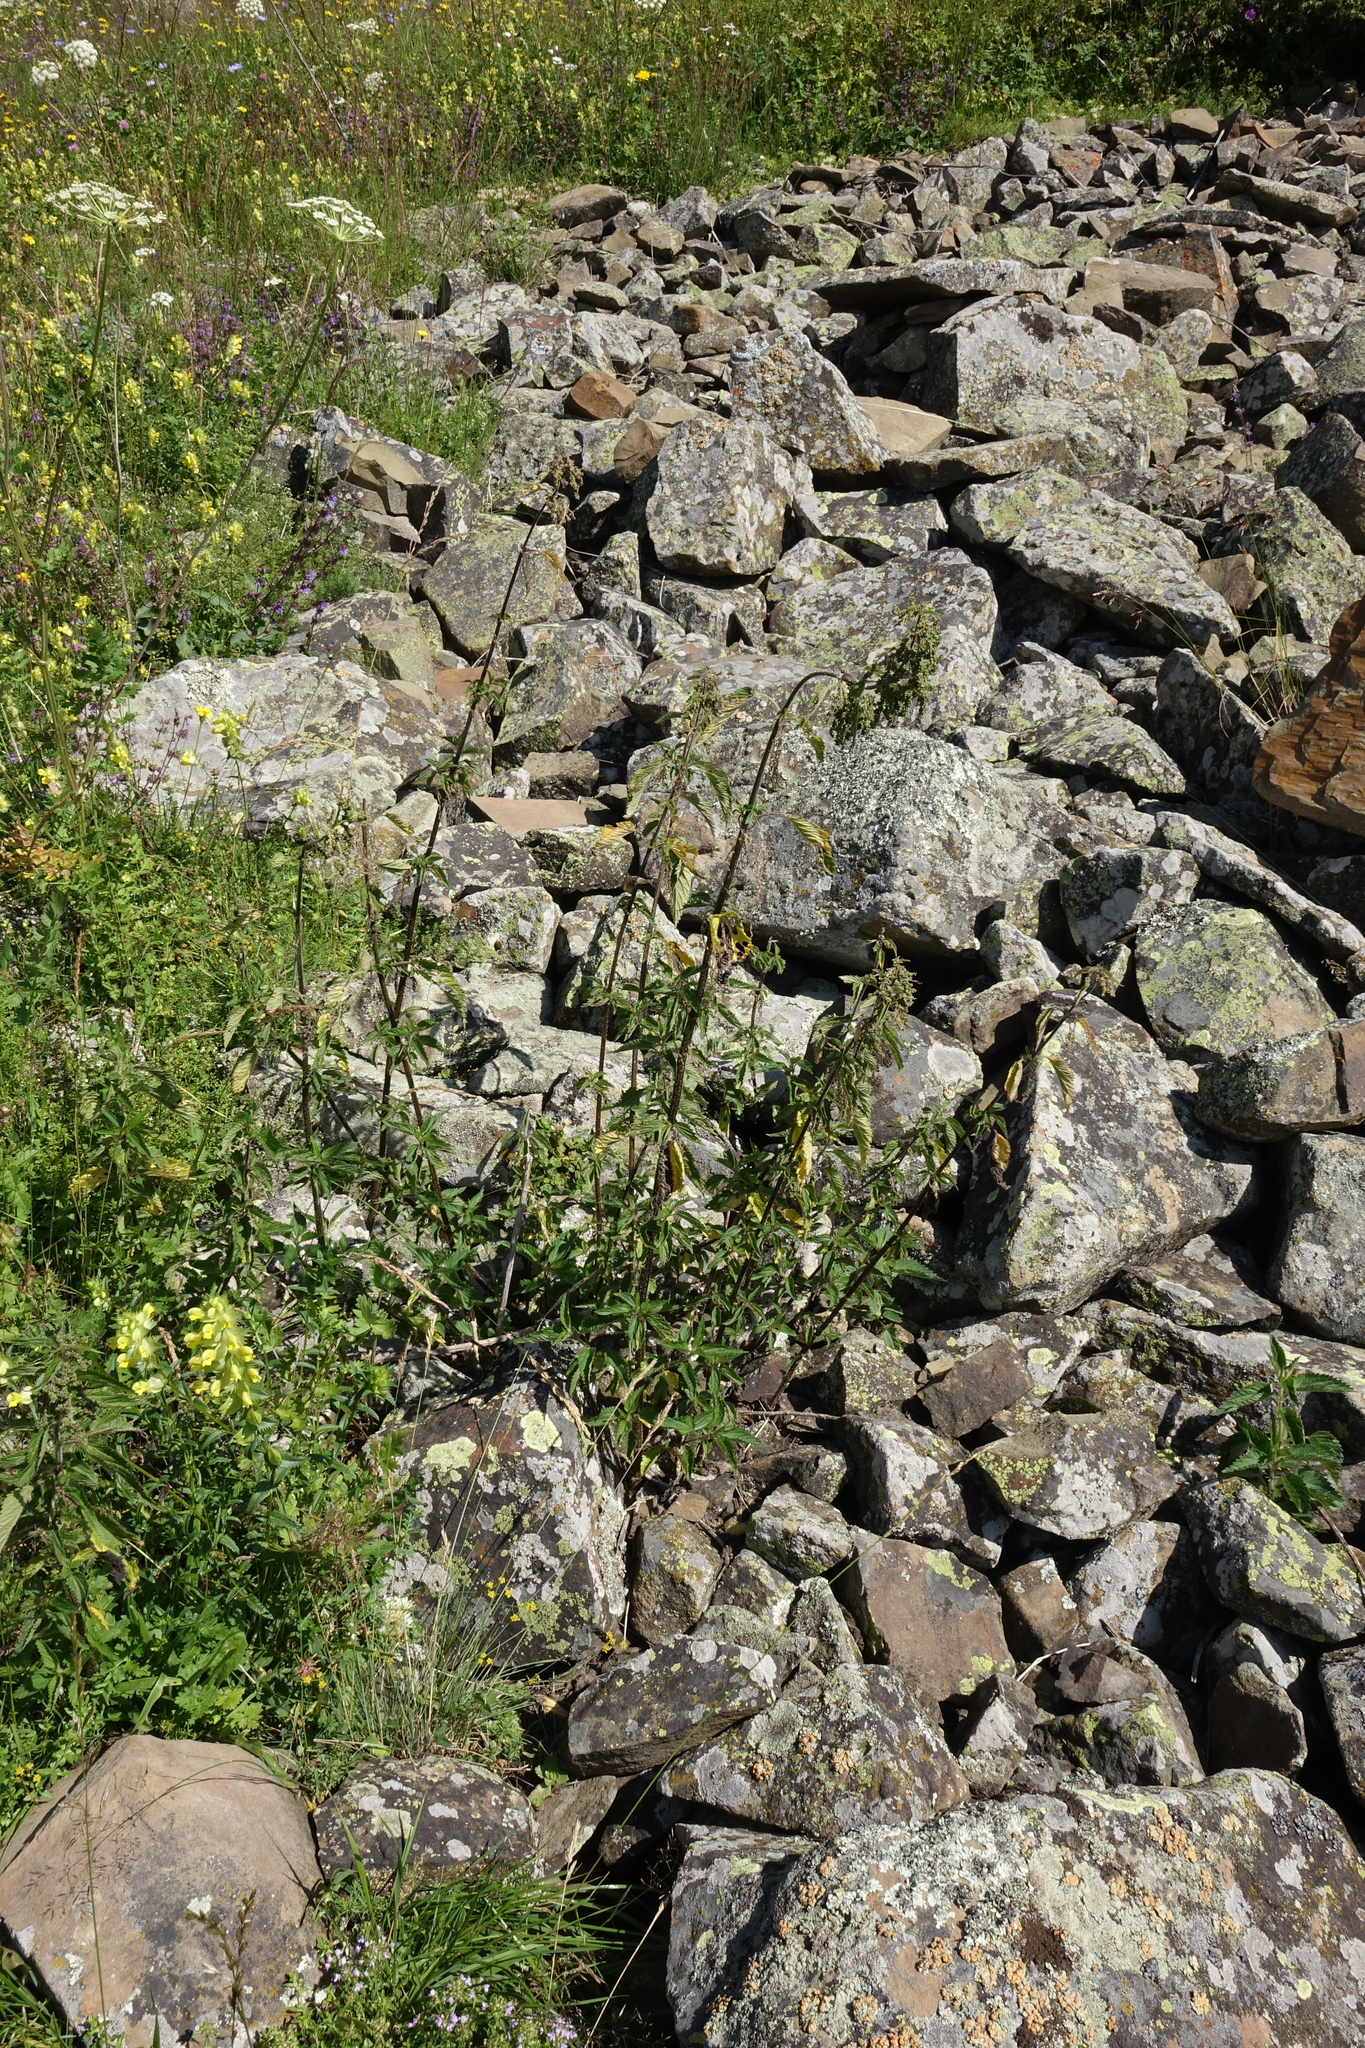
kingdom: Plantae
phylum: Tracheophyta
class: Magnoliopsida
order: Rosales
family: Urticaceae
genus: Urtica
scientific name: Urtica dioica
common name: Common nettle
